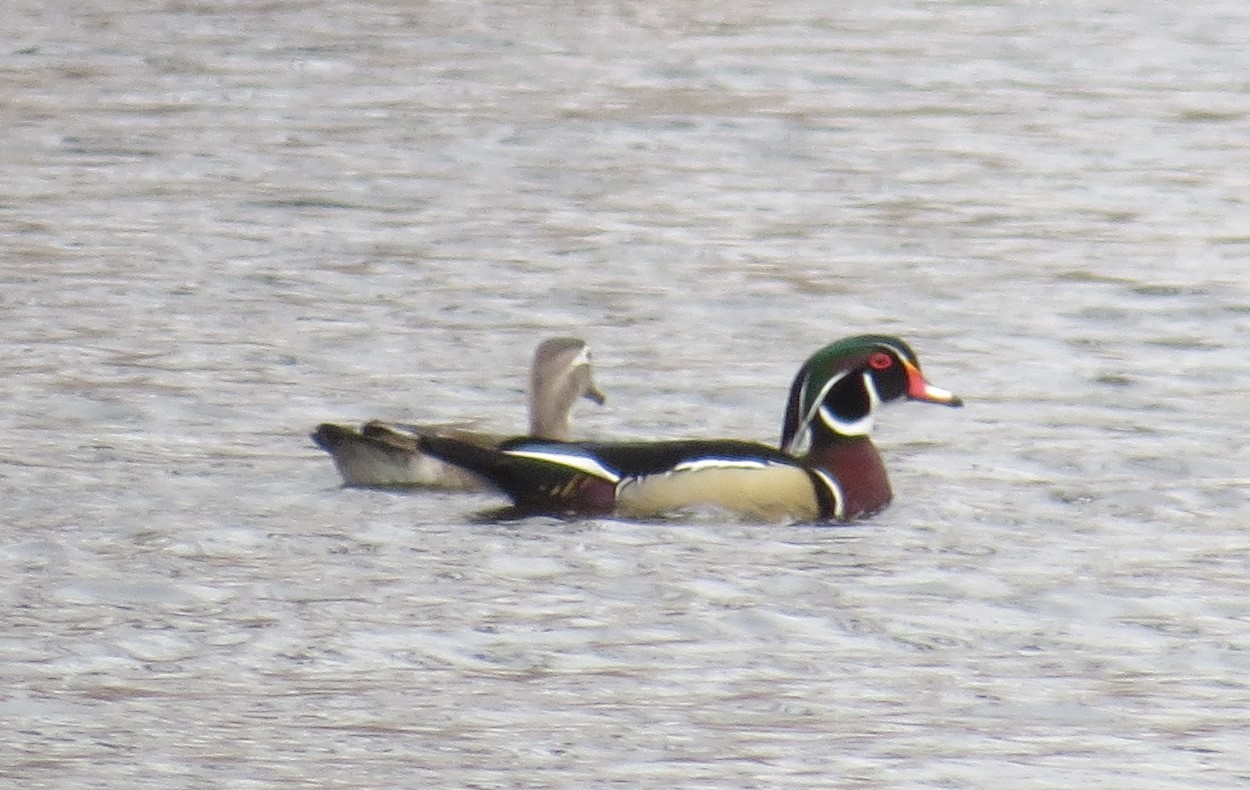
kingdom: Animalia
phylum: Chordata
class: Aves
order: Anseriformes
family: Anatidae
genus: Aix
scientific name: Aix sponsa
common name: Wood duck
